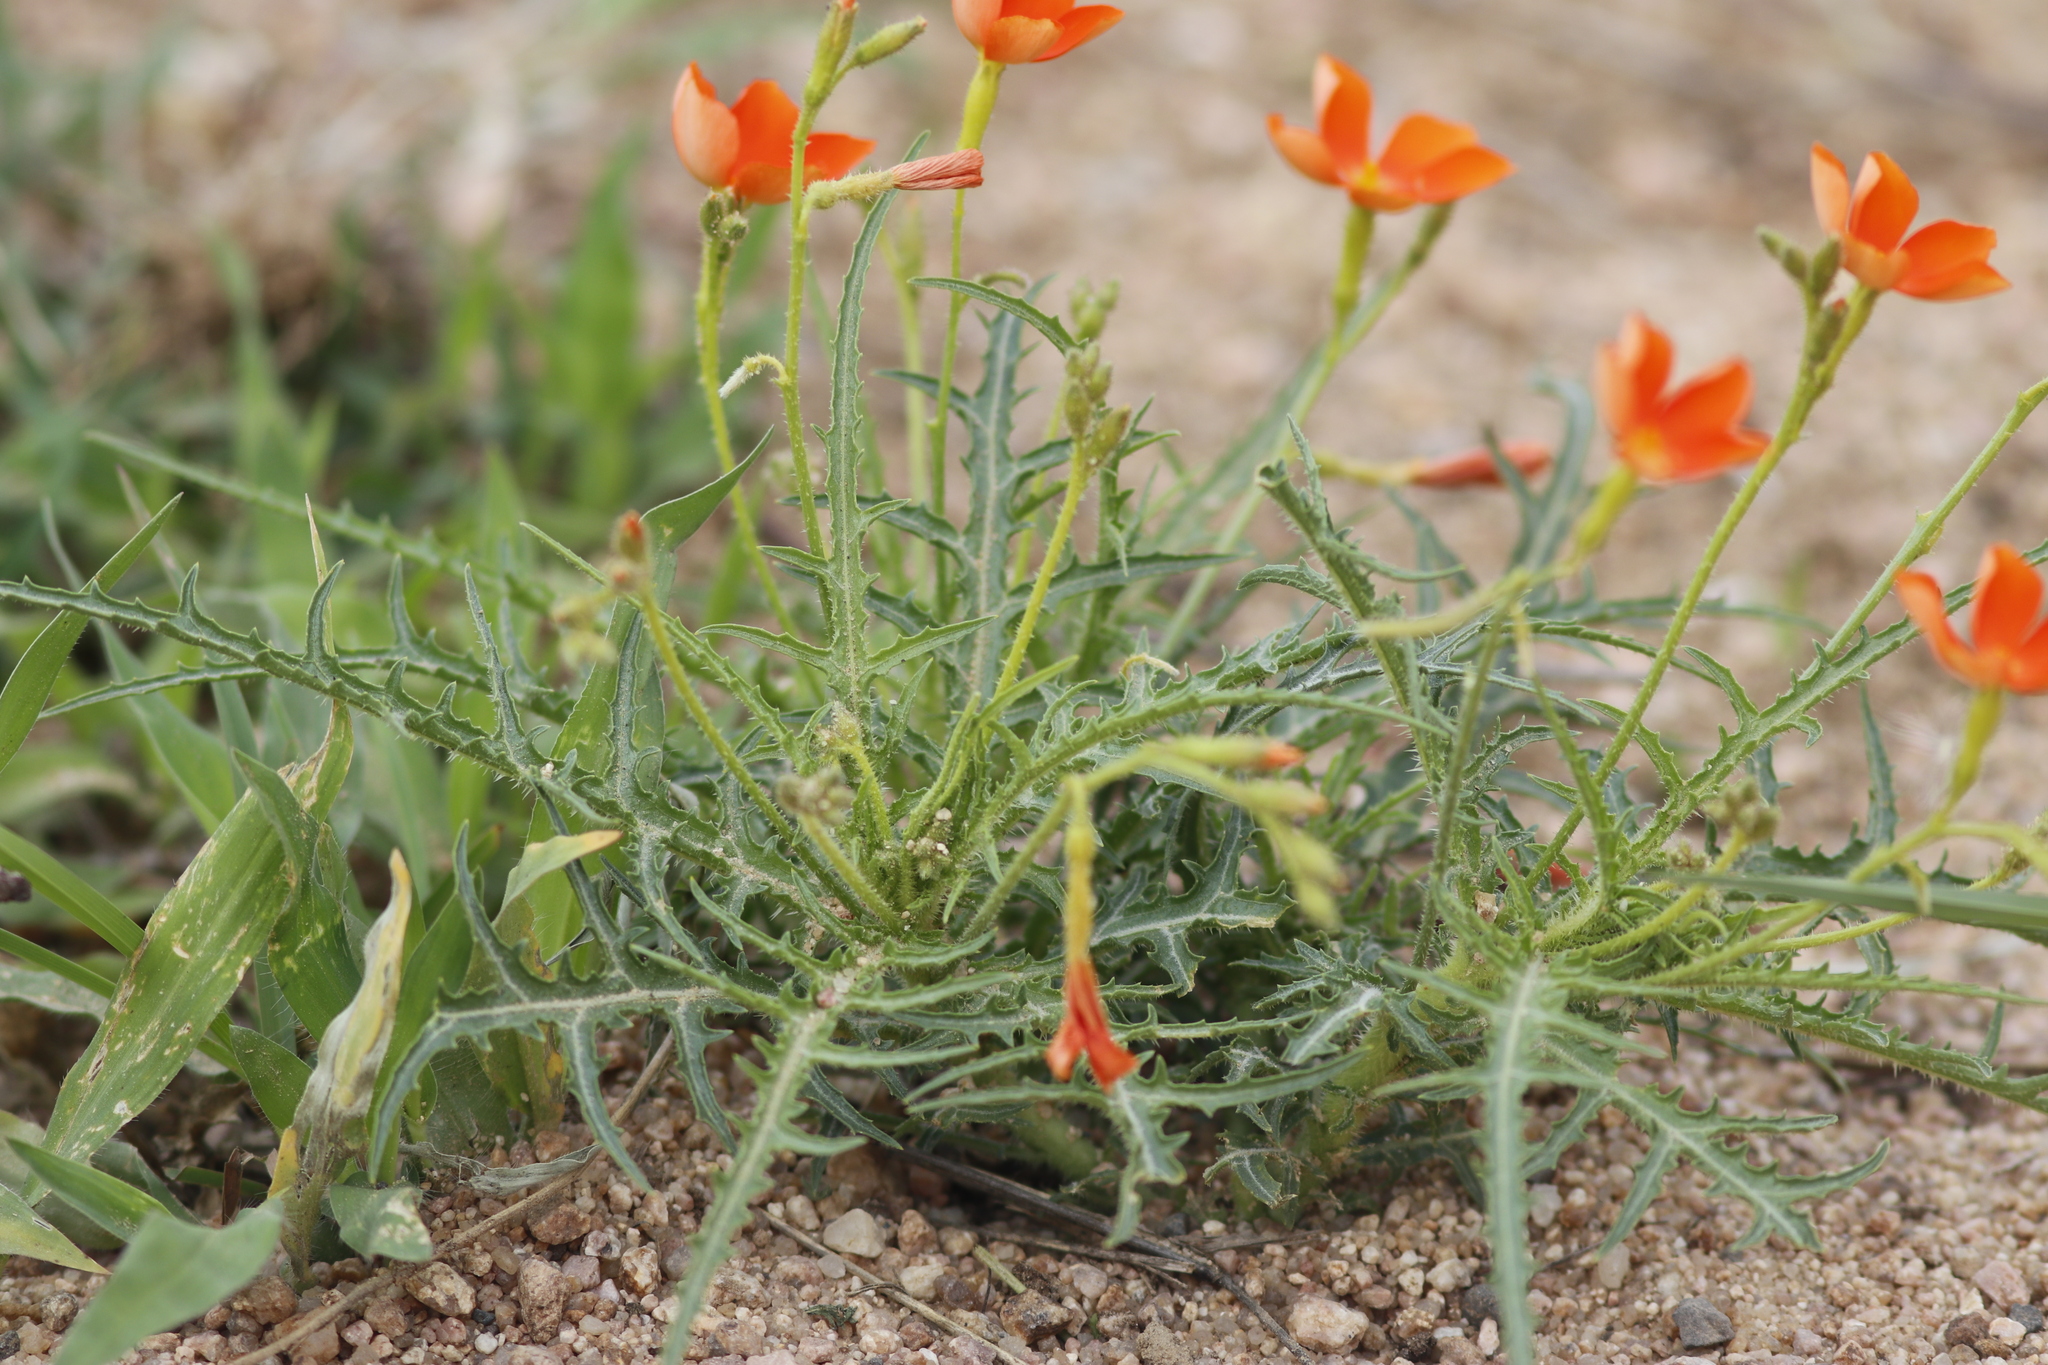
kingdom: Plantae
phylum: Tracheophyta
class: Magnoliopsida
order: Malpighiales
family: Turneraceae
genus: Tricliceras
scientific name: Tricliceras schinzii
